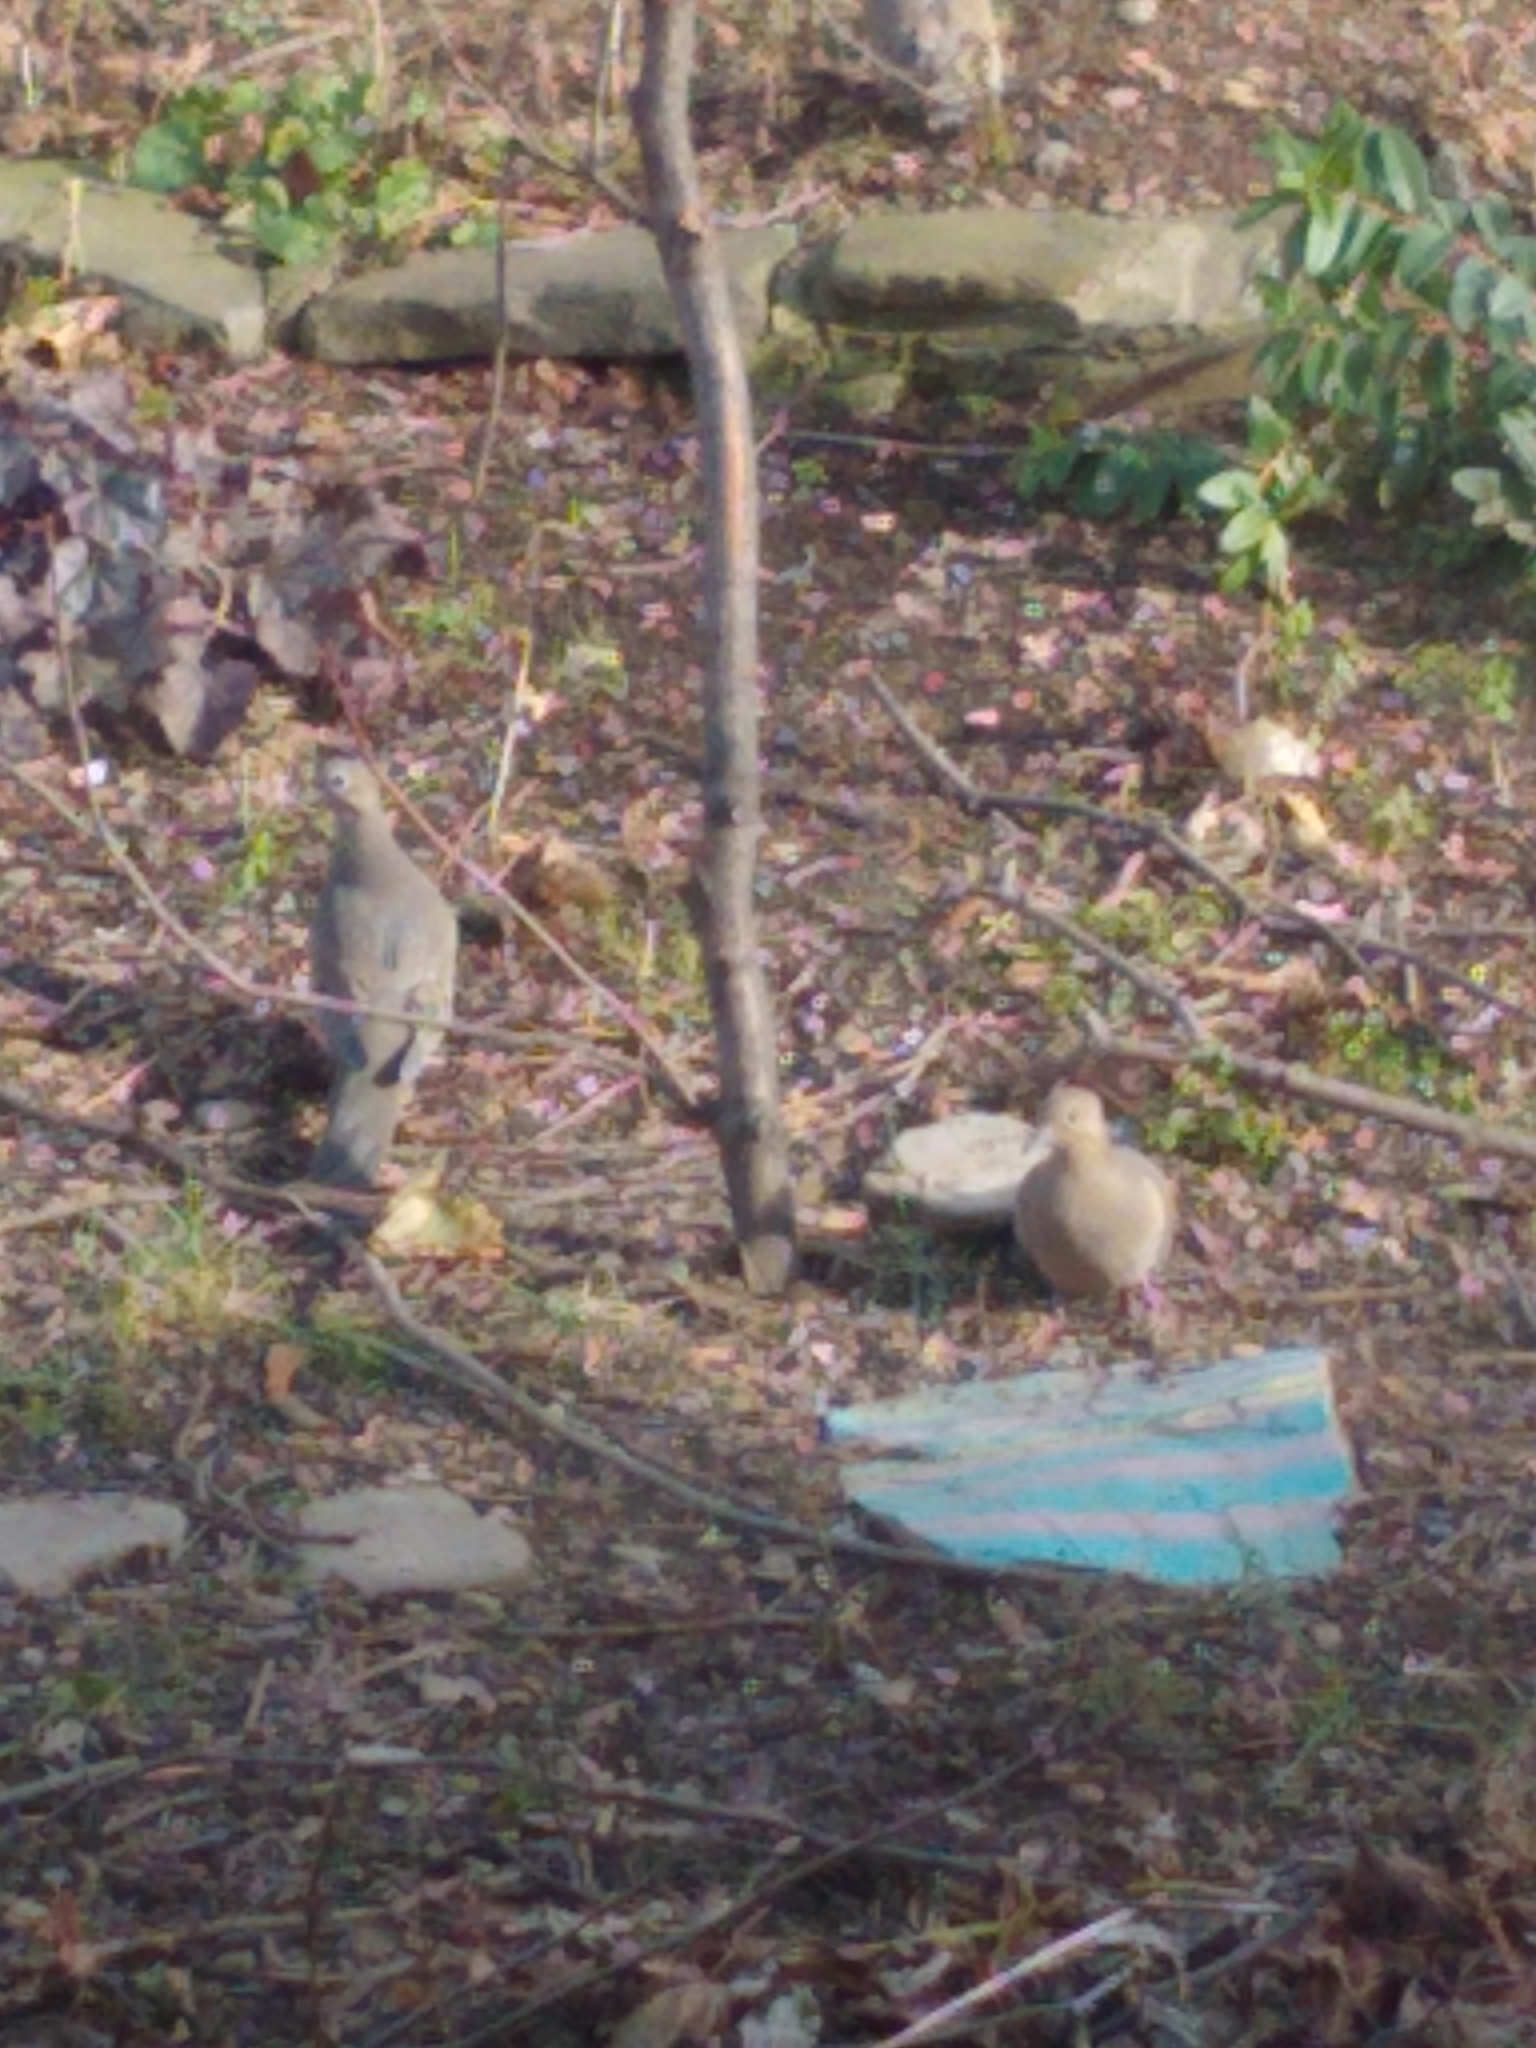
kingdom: Animalia
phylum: Chordata
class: Aves
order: Columbiformes
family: Columbidae
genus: Zenaida
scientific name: Zenaida macroura
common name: Mourning dove
